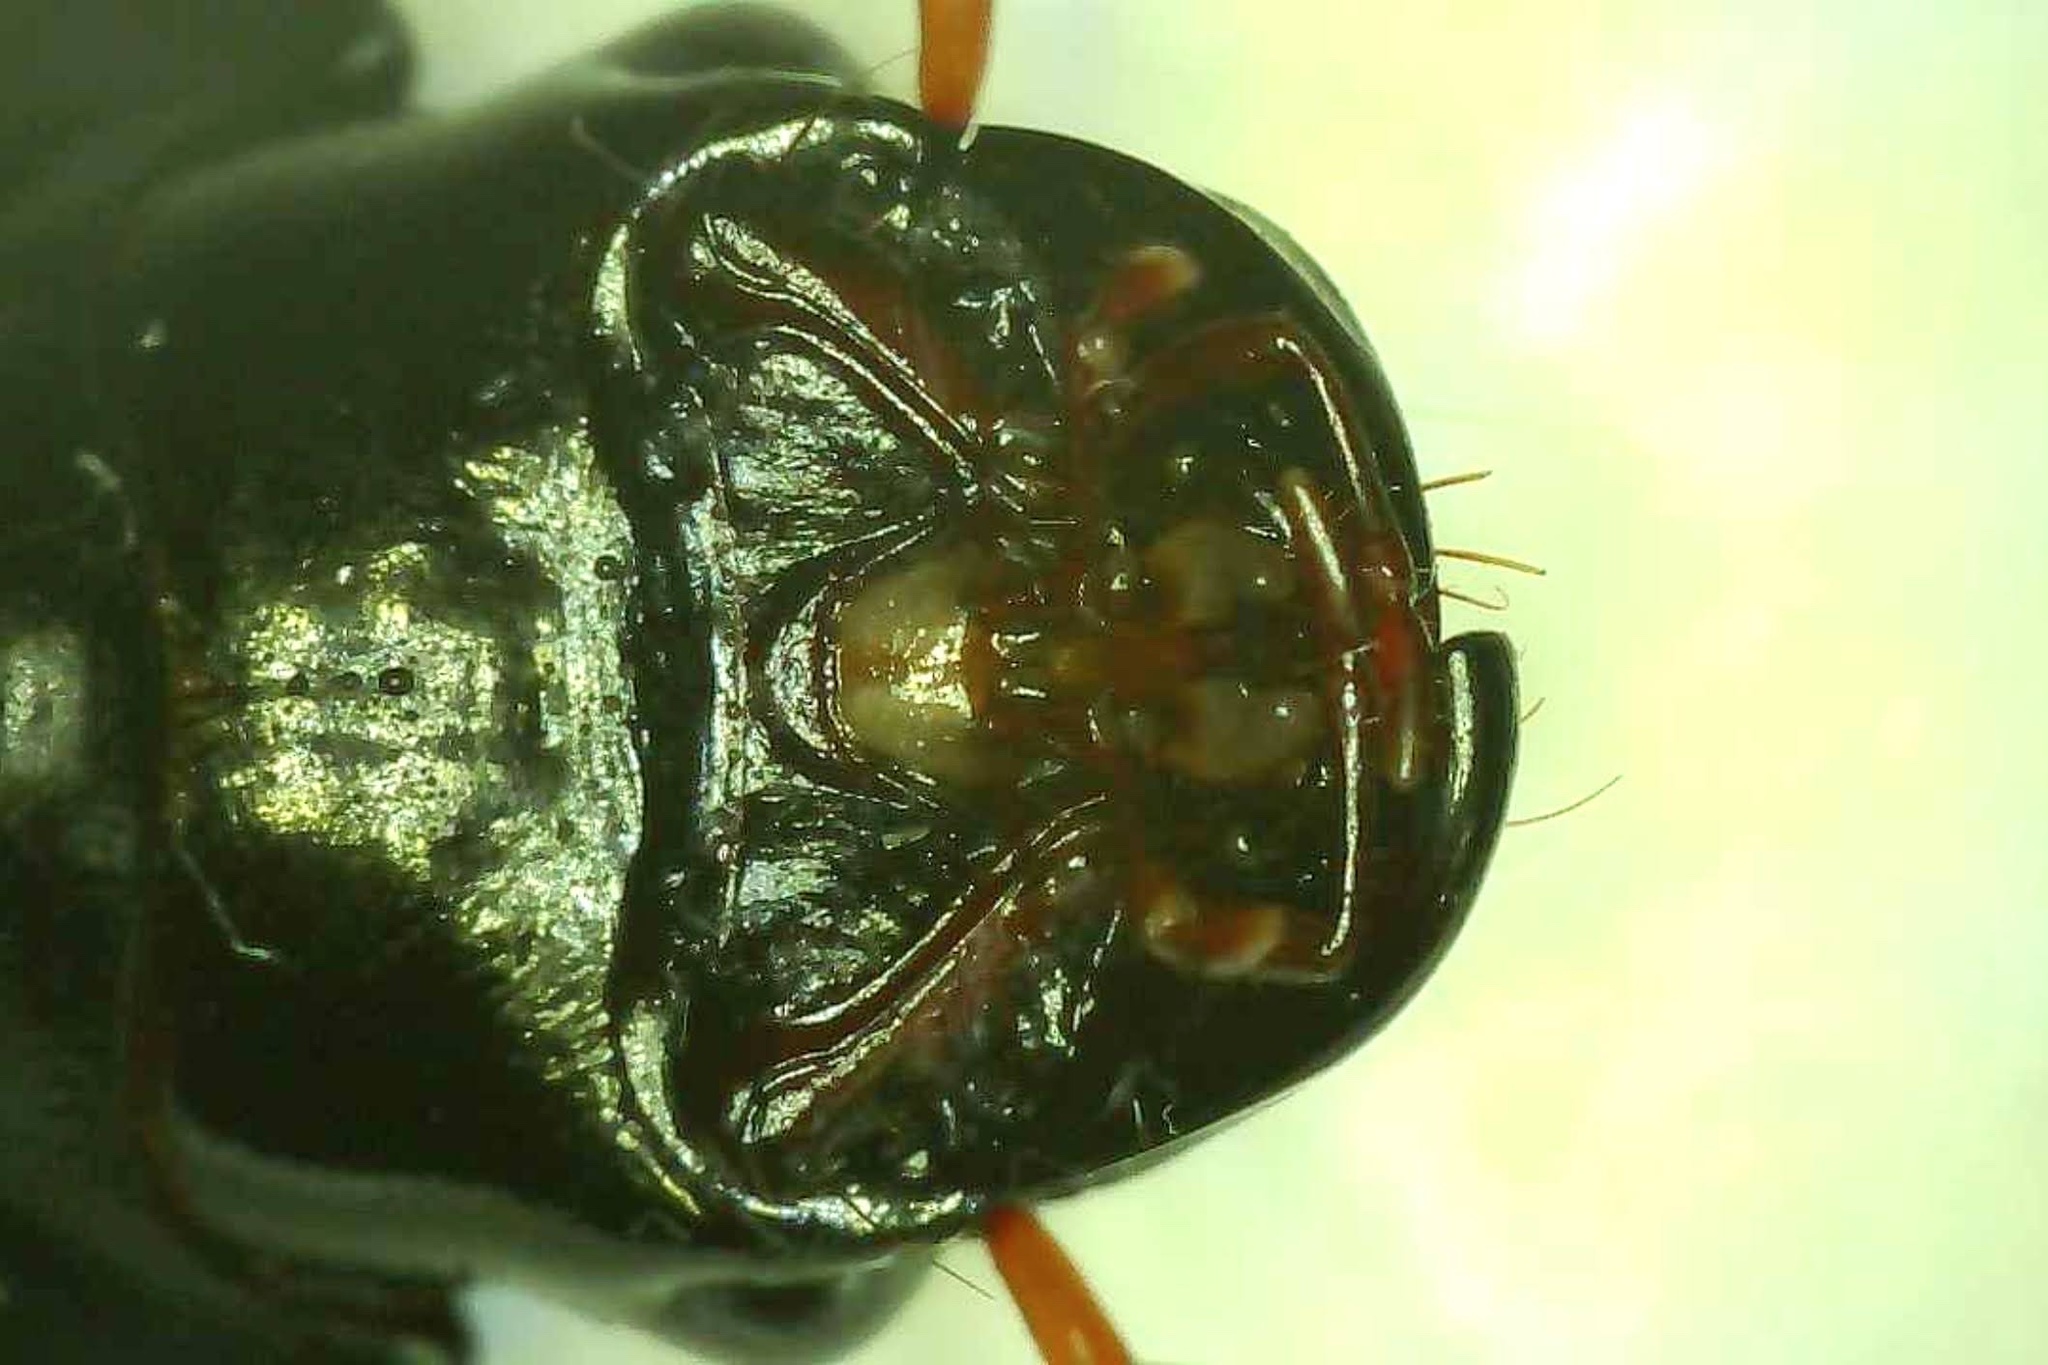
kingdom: Animalia
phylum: Arthropoda
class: Insecta
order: Coleoptera
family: Carabidae
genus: Harpalus
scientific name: Harpalus caliginosus
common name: Murky ground beetle
